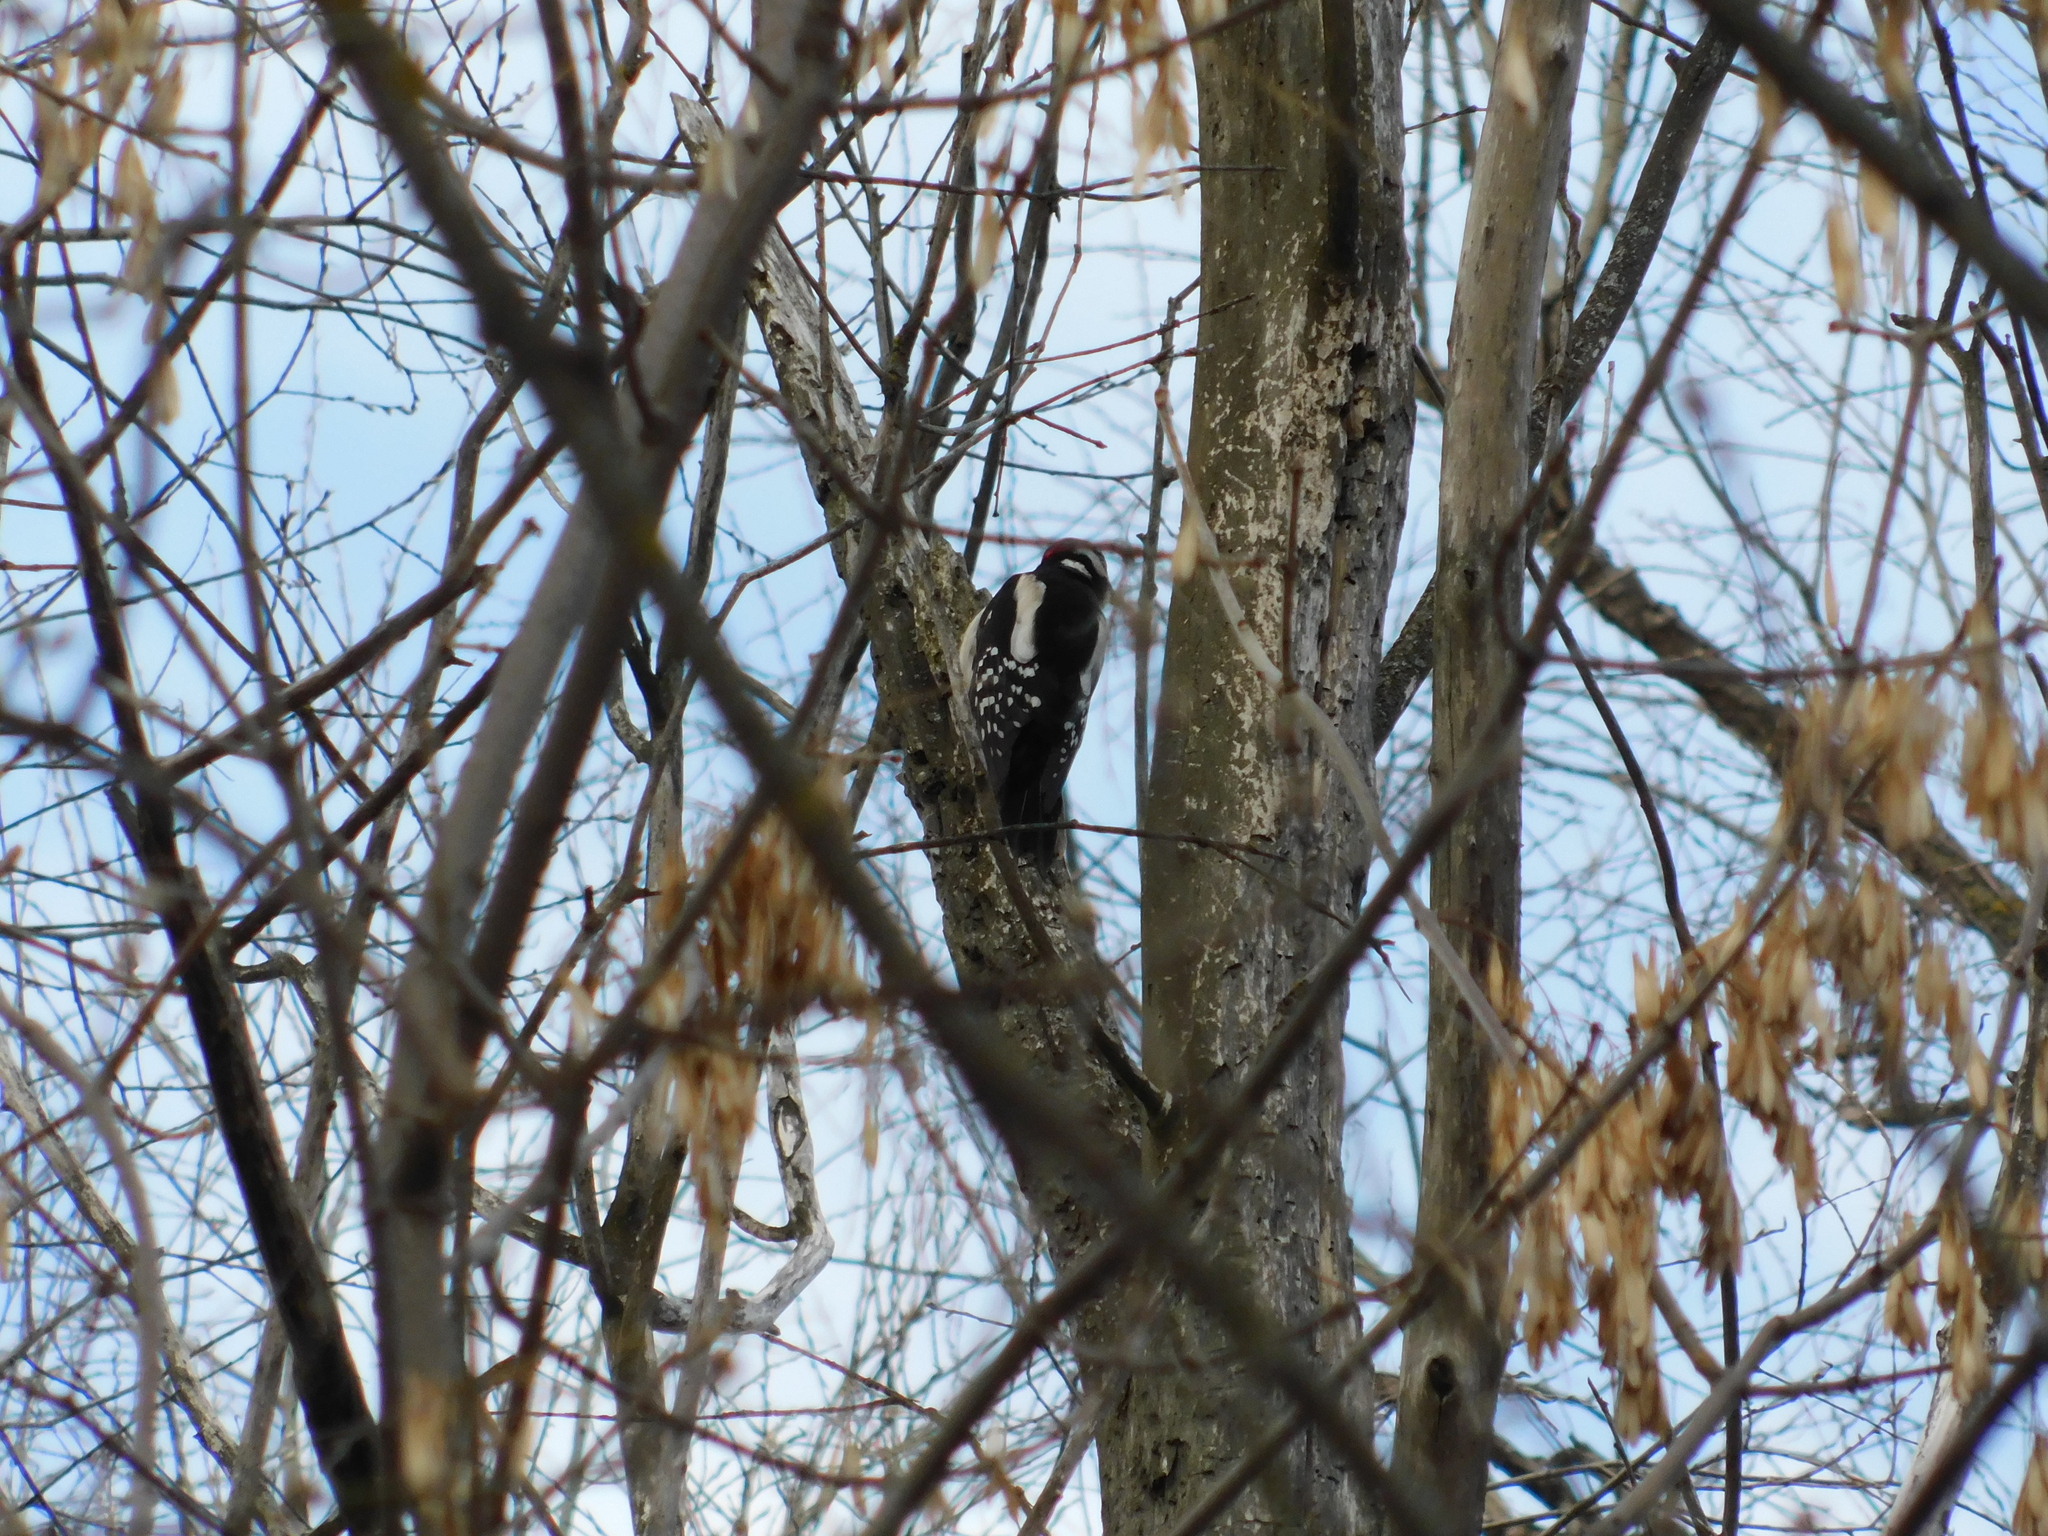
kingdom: Animalia
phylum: Chordata
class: Aves
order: Piciformes
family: Picidae
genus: Dendrocopos
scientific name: Dendrocopos major
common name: Great spotted woodpecker
